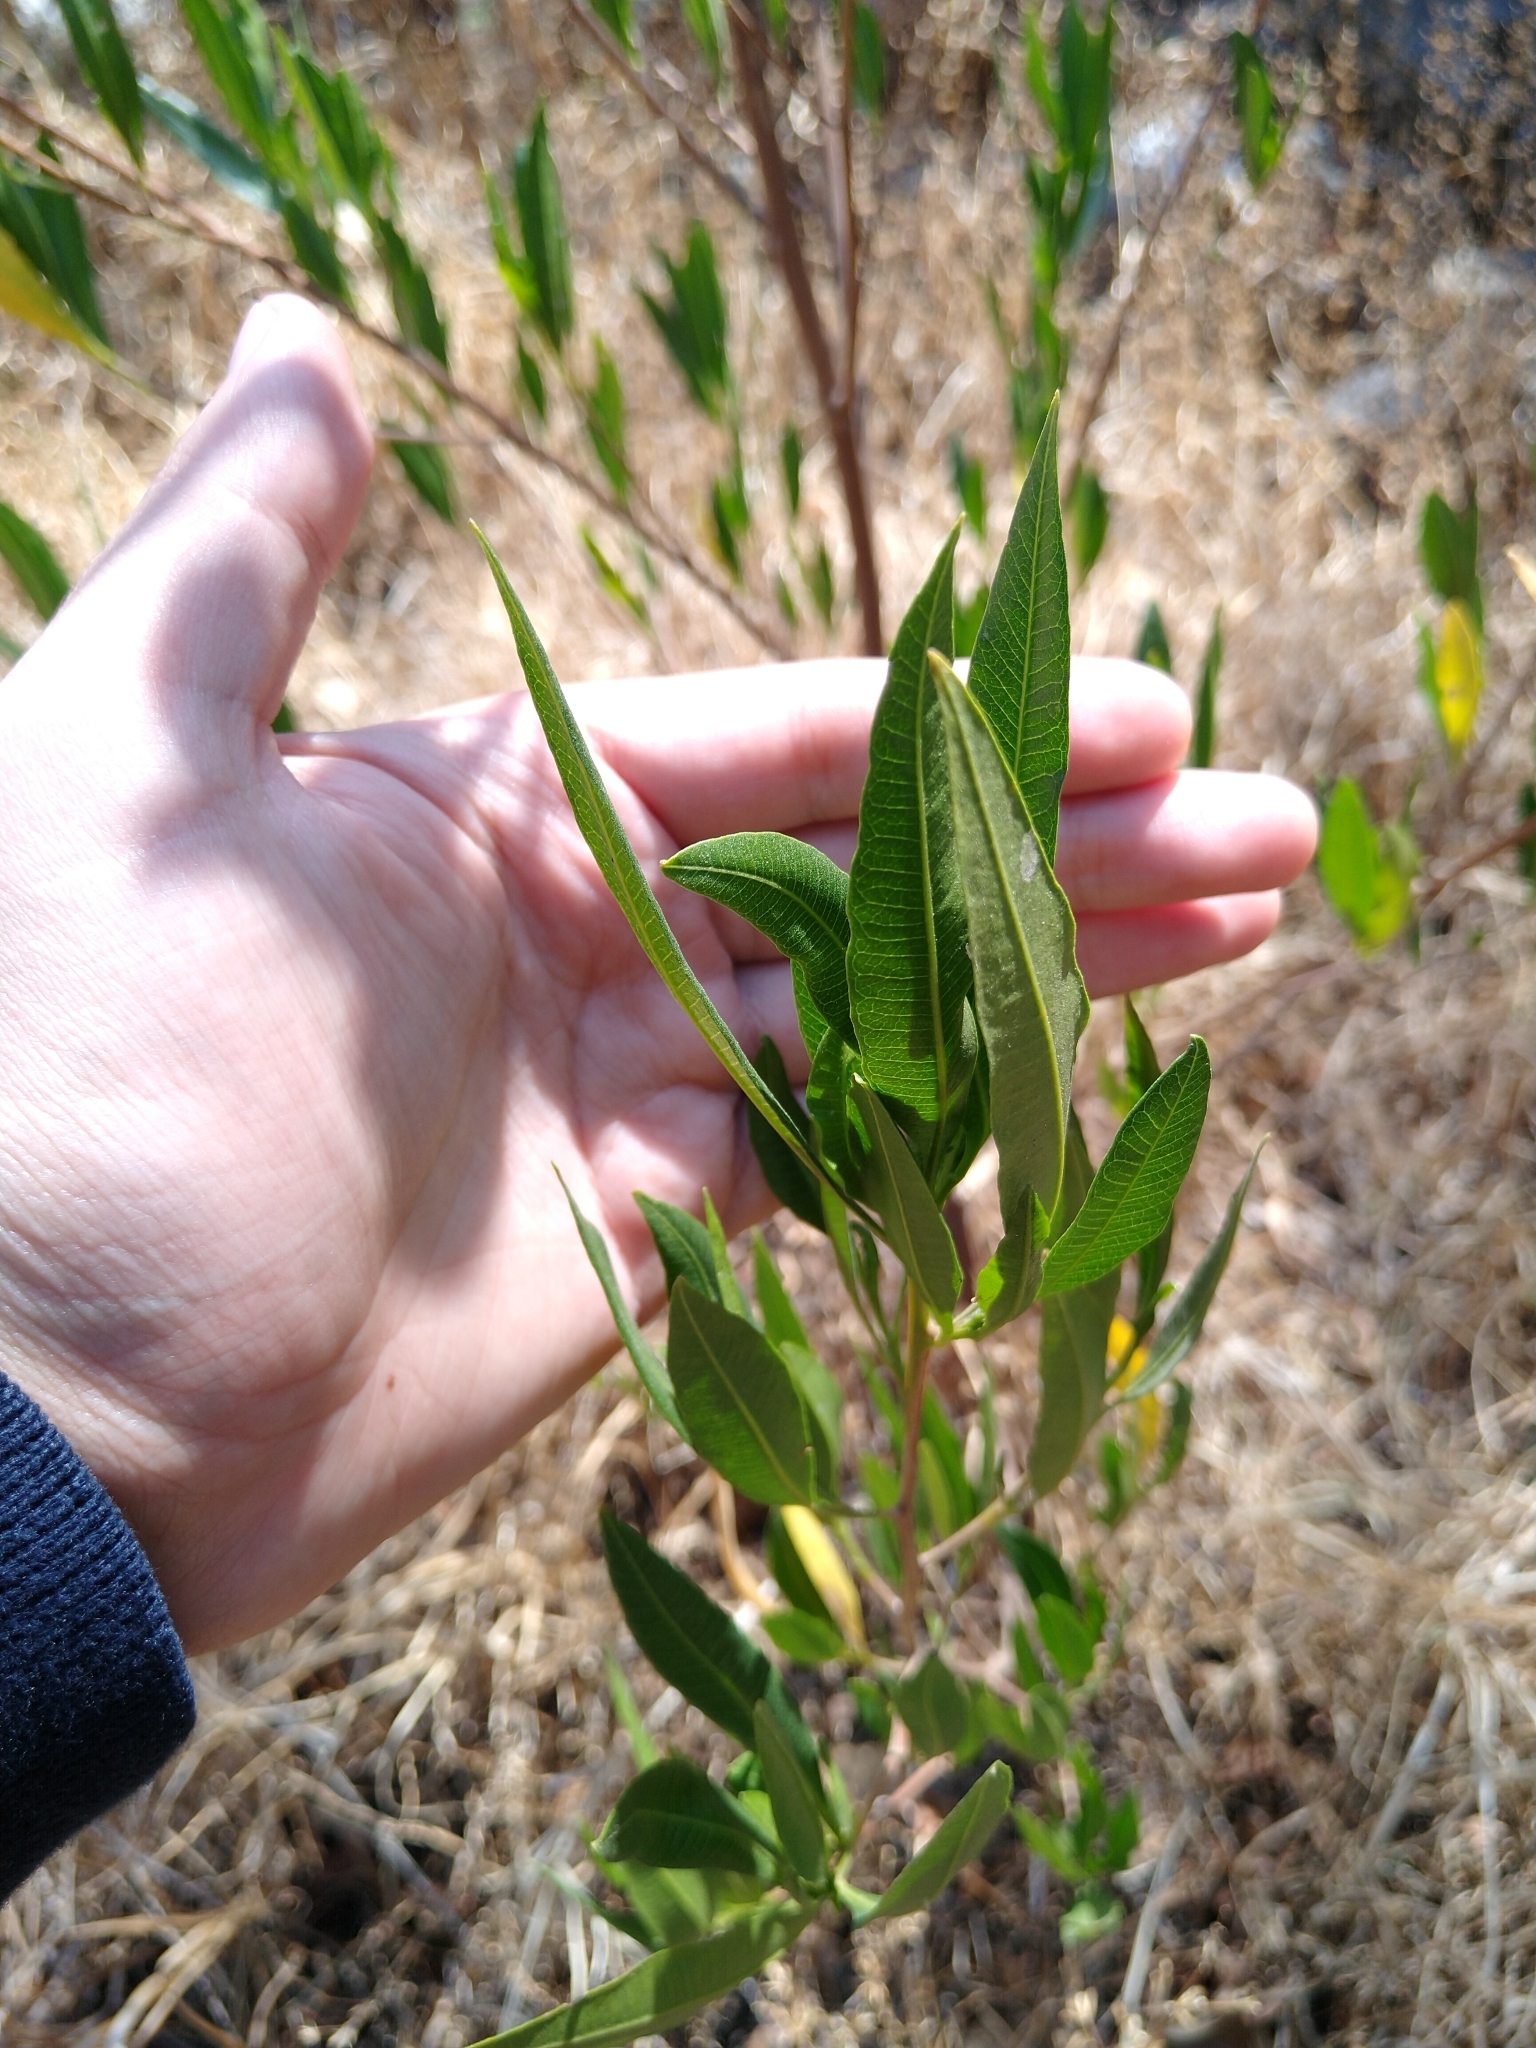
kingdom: Plantae
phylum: Tracheophyta
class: Magnoliopsida
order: Sapindales
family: Sapindaceae
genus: Dodonaea
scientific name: Dodonaea viscosa
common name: Hopbush
